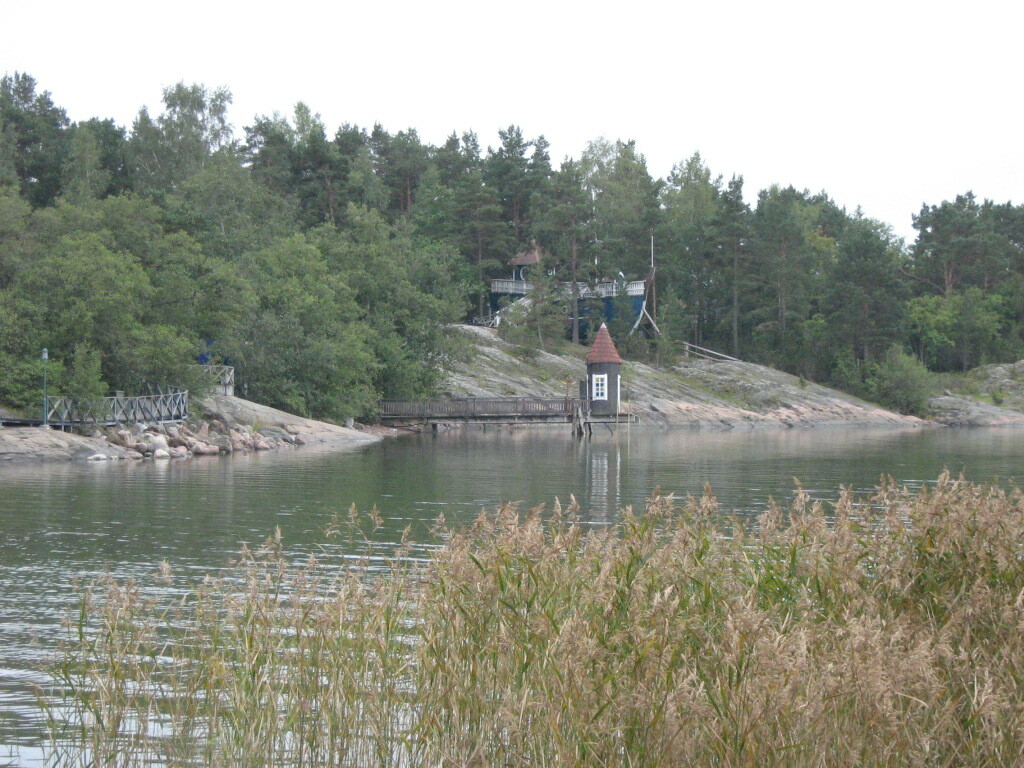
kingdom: Plantae
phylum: Tracheophyta
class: Liliopsida
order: Poales
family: Poaceae
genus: Phragmites
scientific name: Phragmites australis
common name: Common reed
